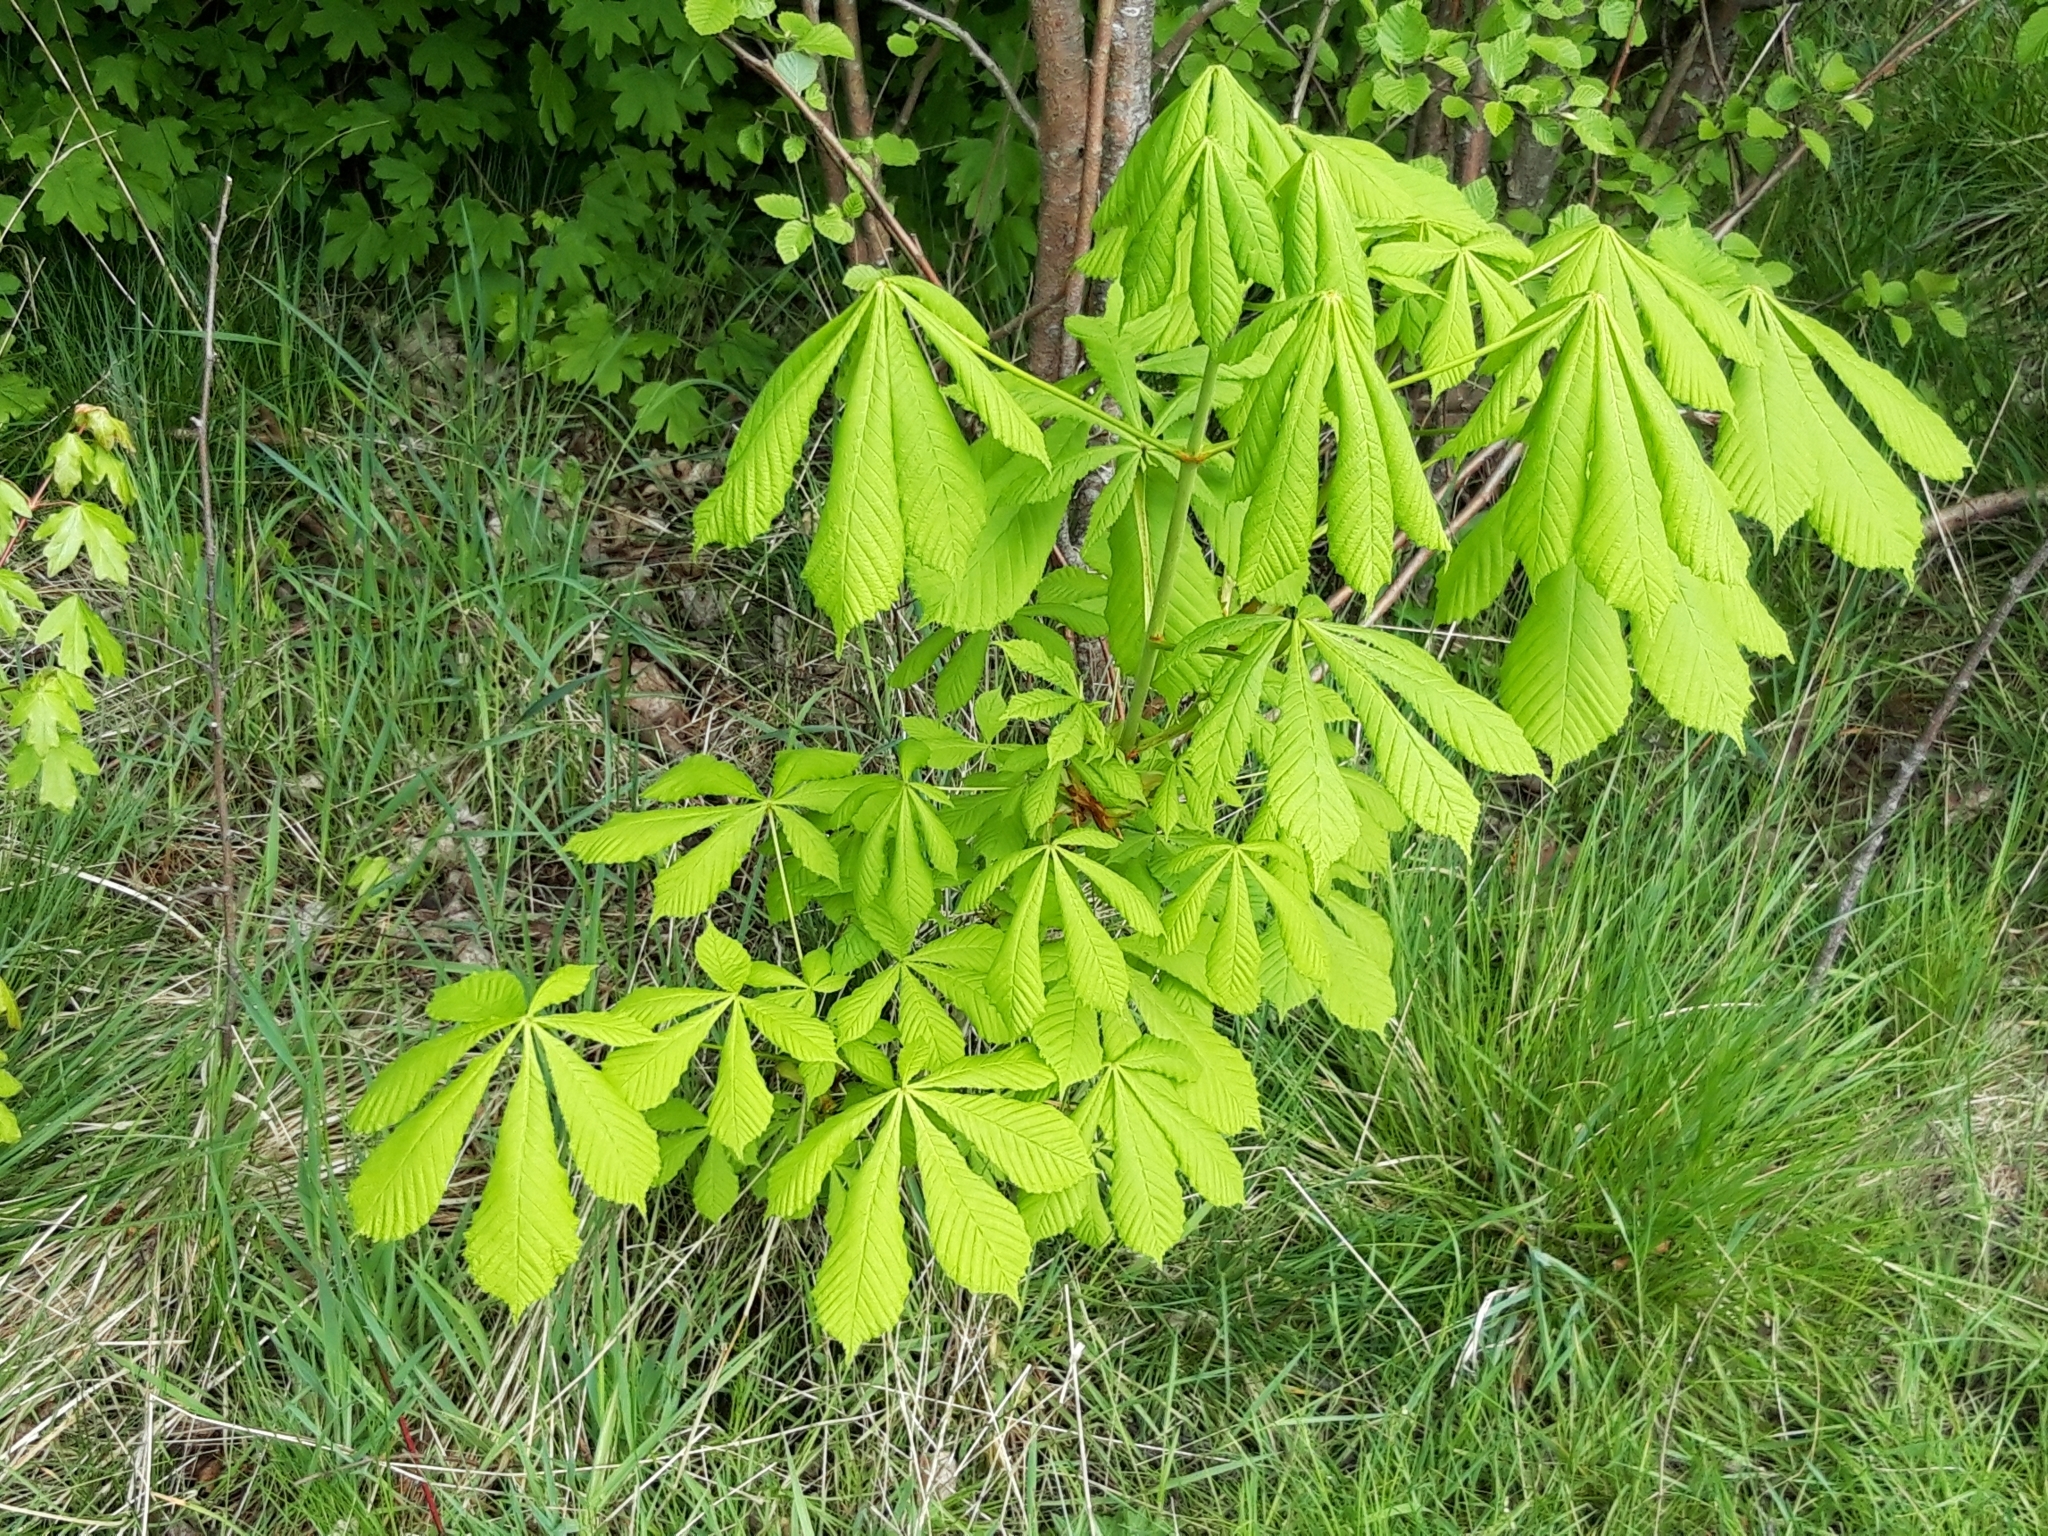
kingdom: Plantae
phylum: Tracheophyta
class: Magnoliopsida
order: Sapindales
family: Sapindaceae
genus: Aesculus
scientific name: Aesculus hippocastanum
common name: Horse-chestnut
